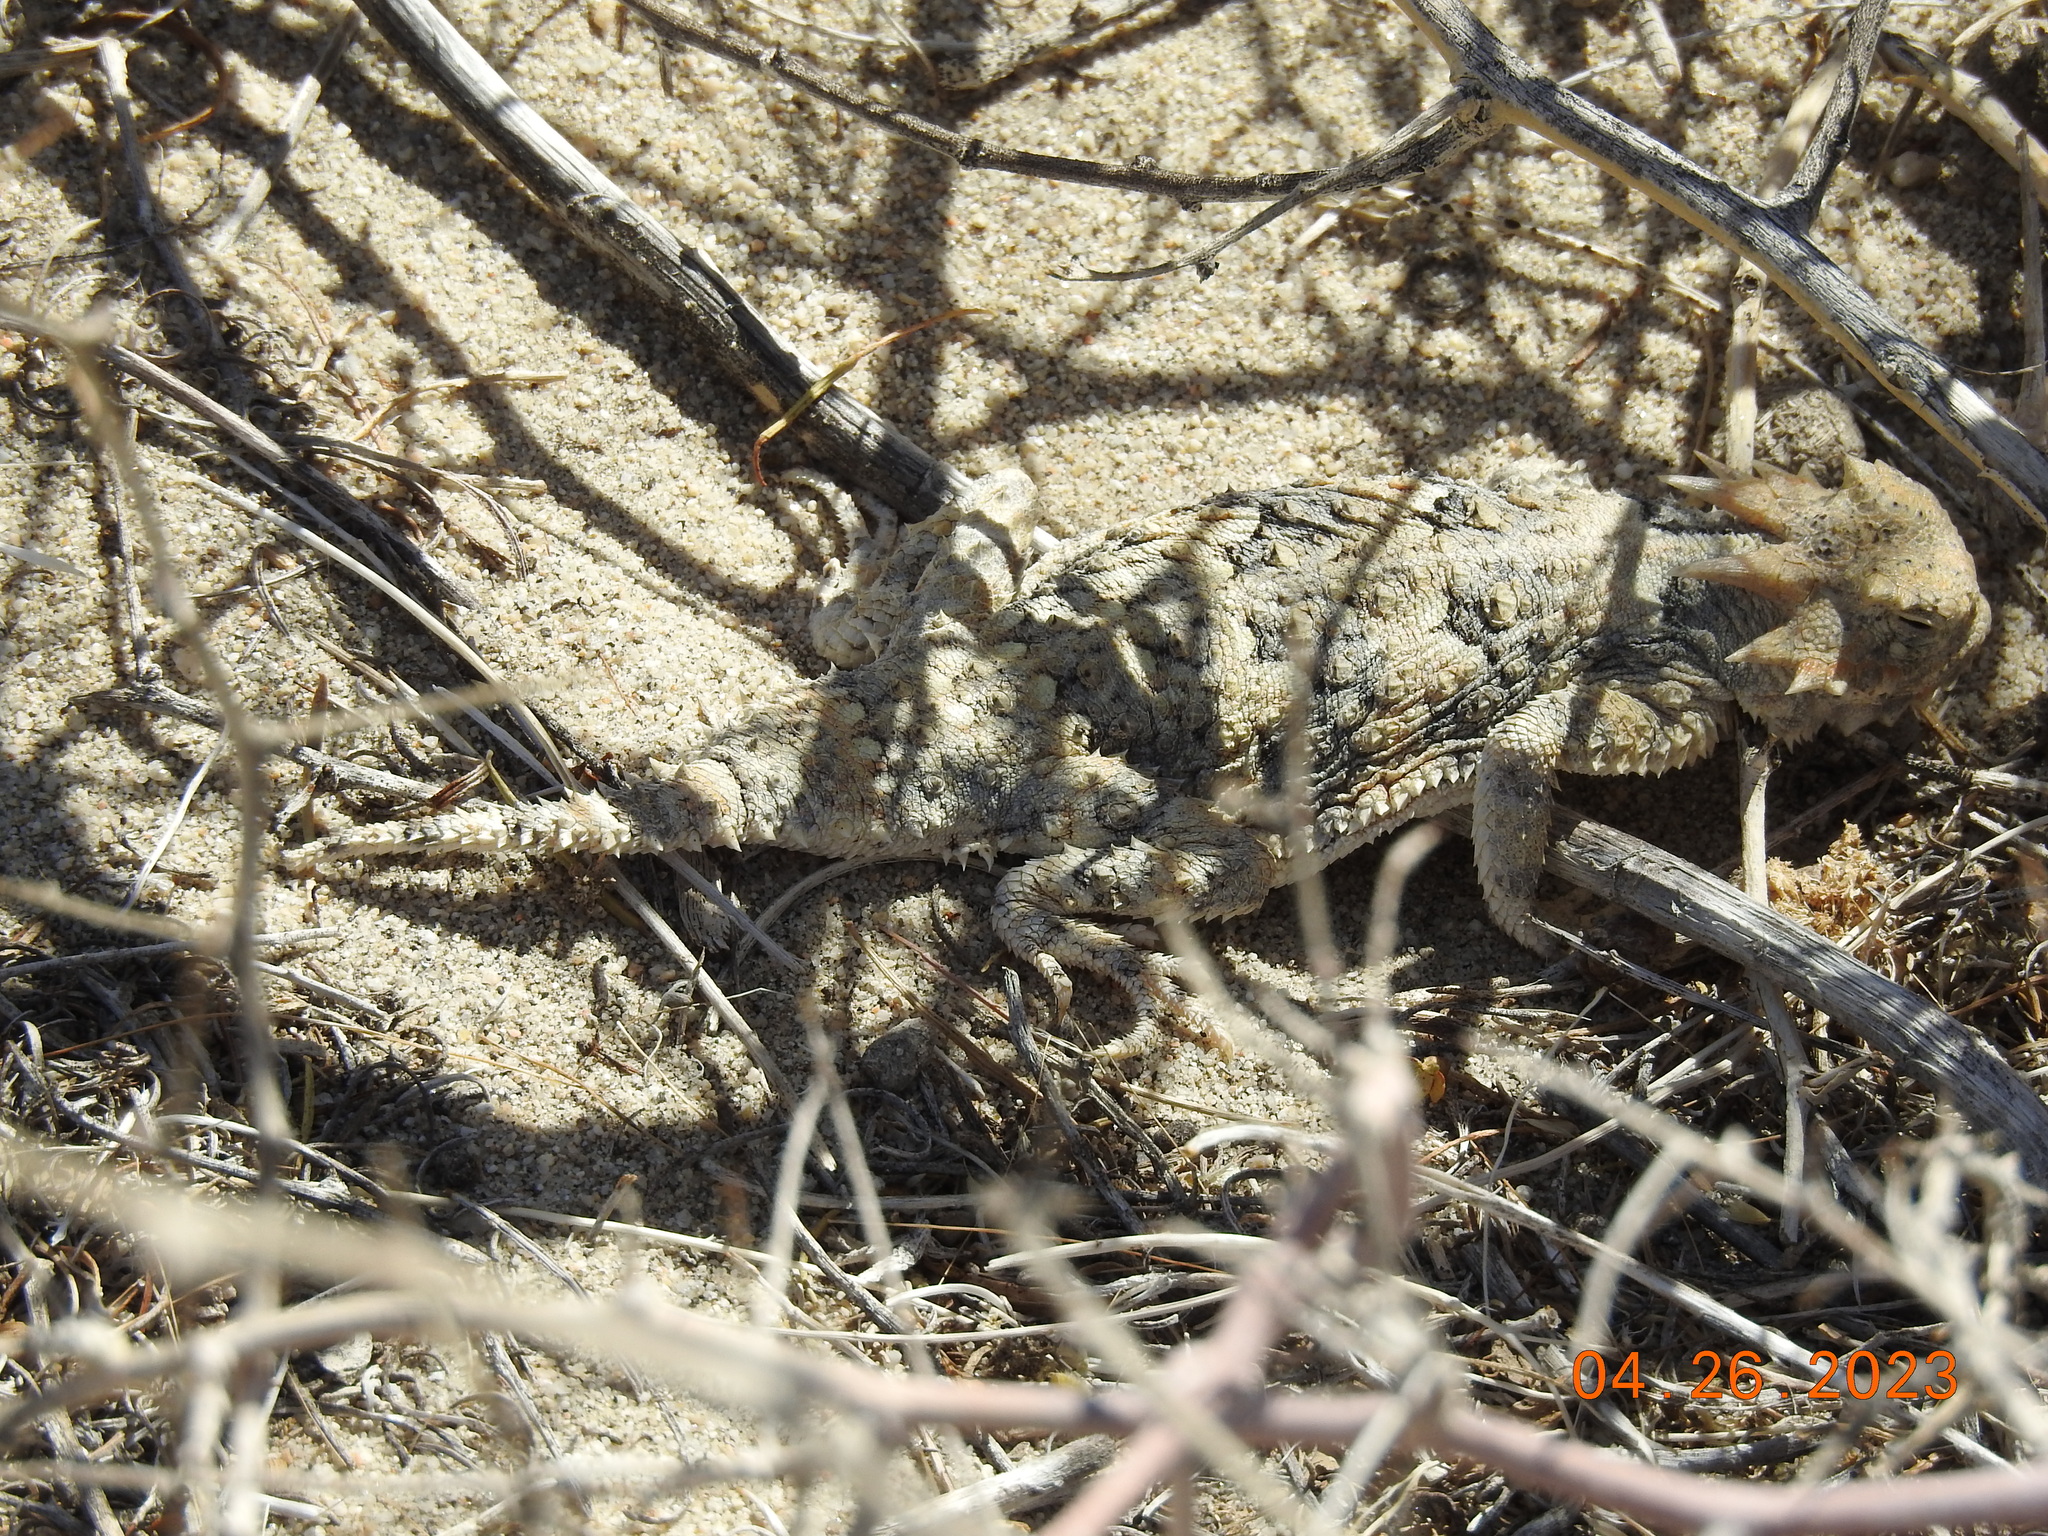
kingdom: Animalia
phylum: Chordata
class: Squamata
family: Phrynosomatidae
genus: Phrynosoma
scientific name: Phrynosoma platyrhinos
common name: Desert horned lizard
